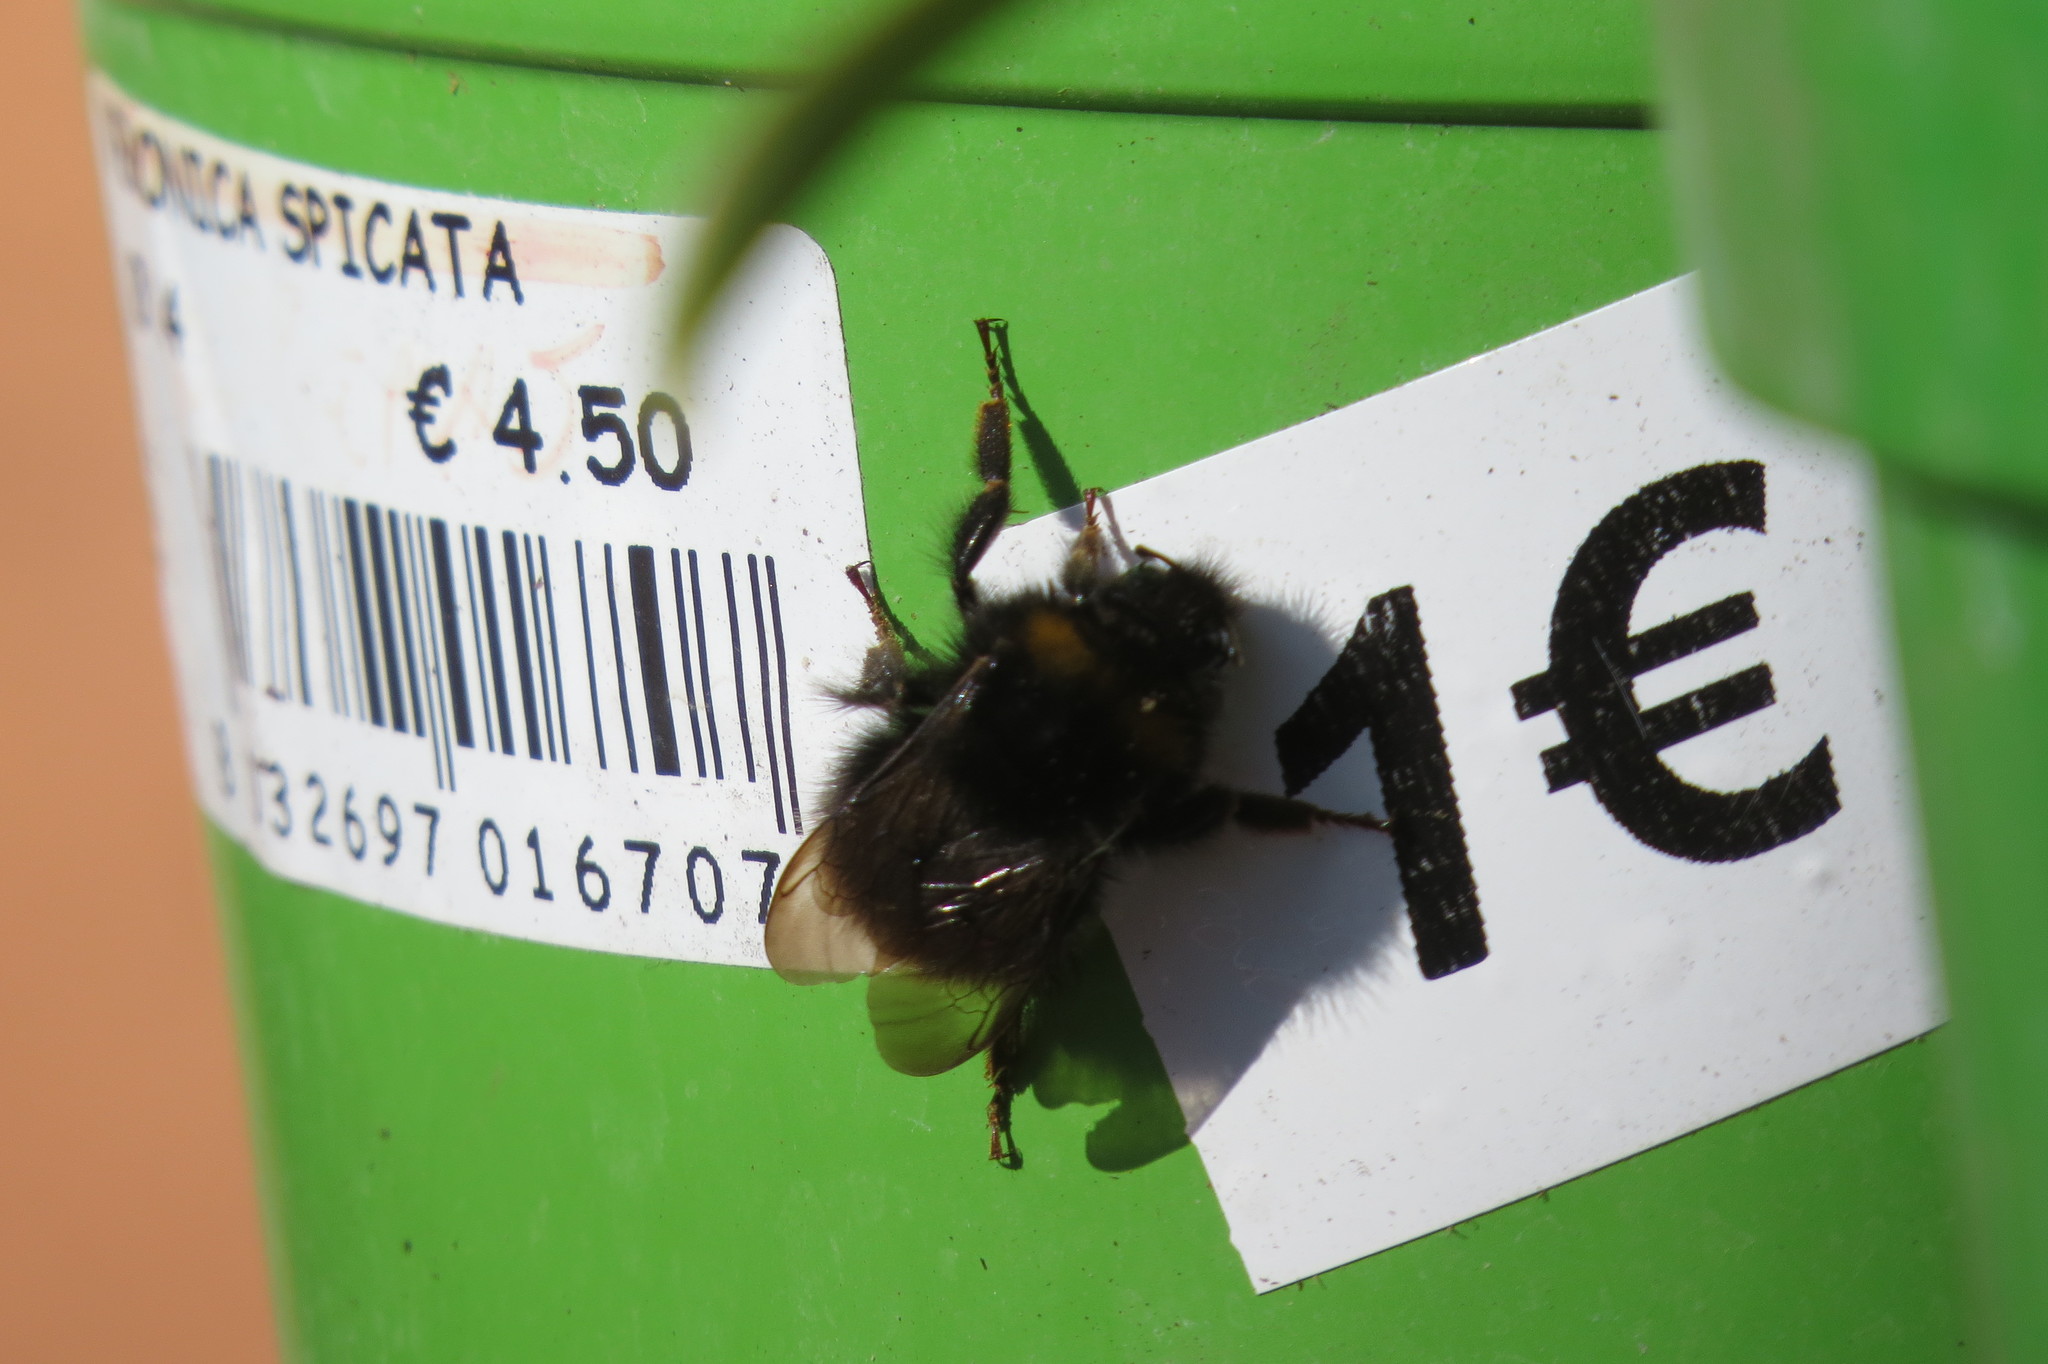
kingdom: Animalia
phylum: Arthropoda
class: Insecta
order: Hymenoptera
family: Apidae
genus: Bombus
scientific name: Bombus pratorum
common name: Early humble-bee
